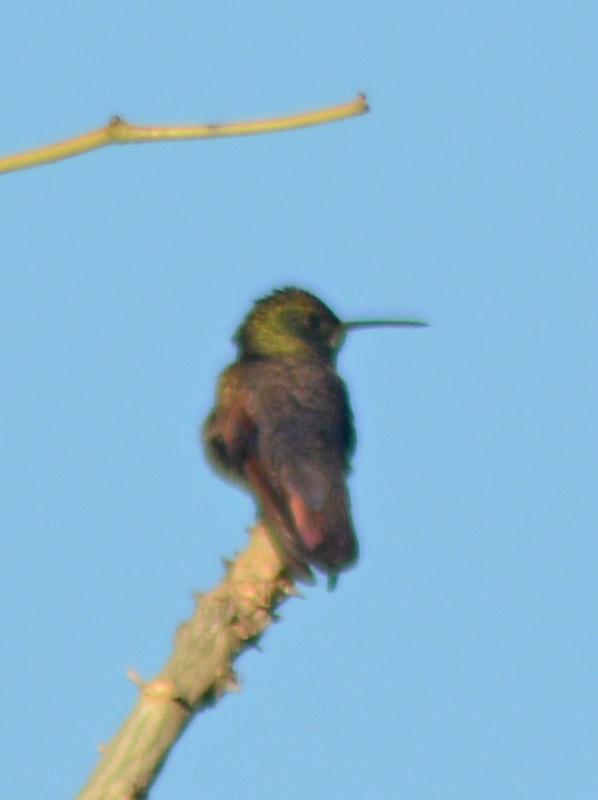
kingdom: Animalia
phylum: Chordata
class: Aves
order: Apodiformes
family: Trochilidae
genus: Saucerottia
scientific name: Saucerottia beryllina
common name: Berylline hummingbird
